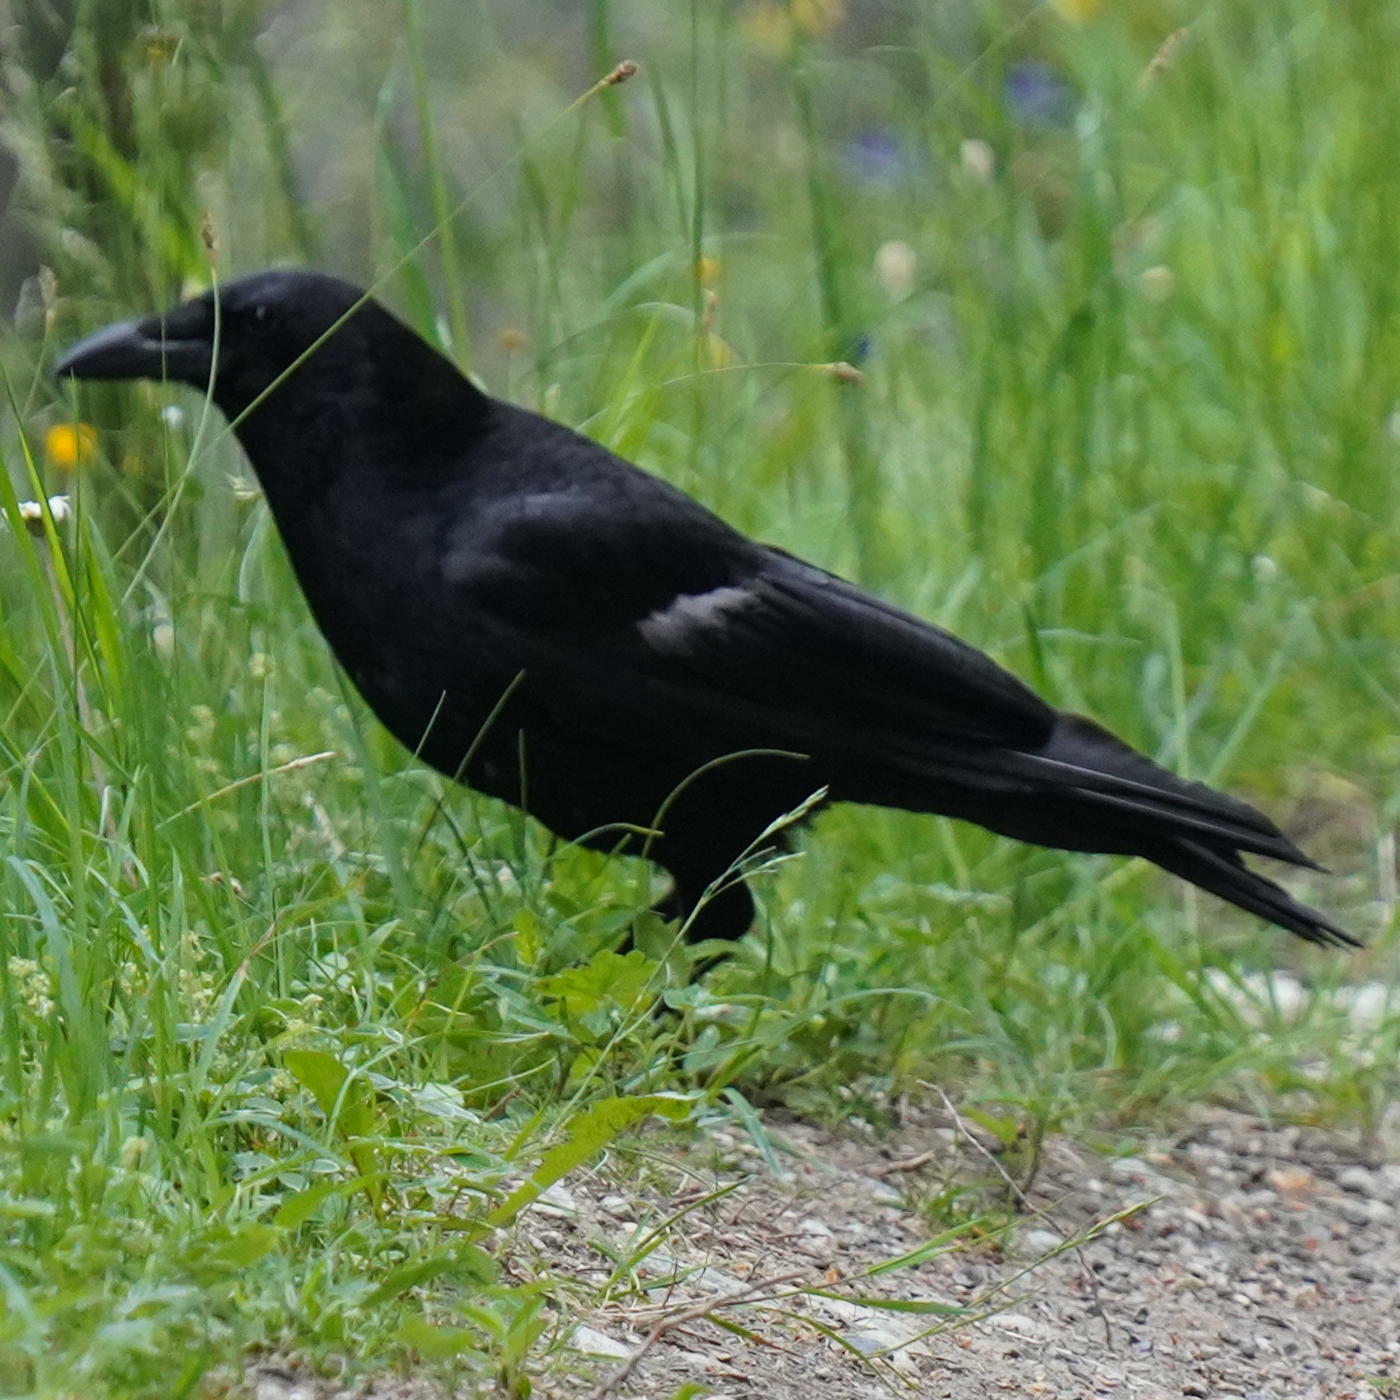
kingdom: Animalia
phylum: Chordata
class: Aves
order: Passeriformes
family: Corvidae
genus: Corvus
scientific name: Corvus corone
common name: Carrion crow
